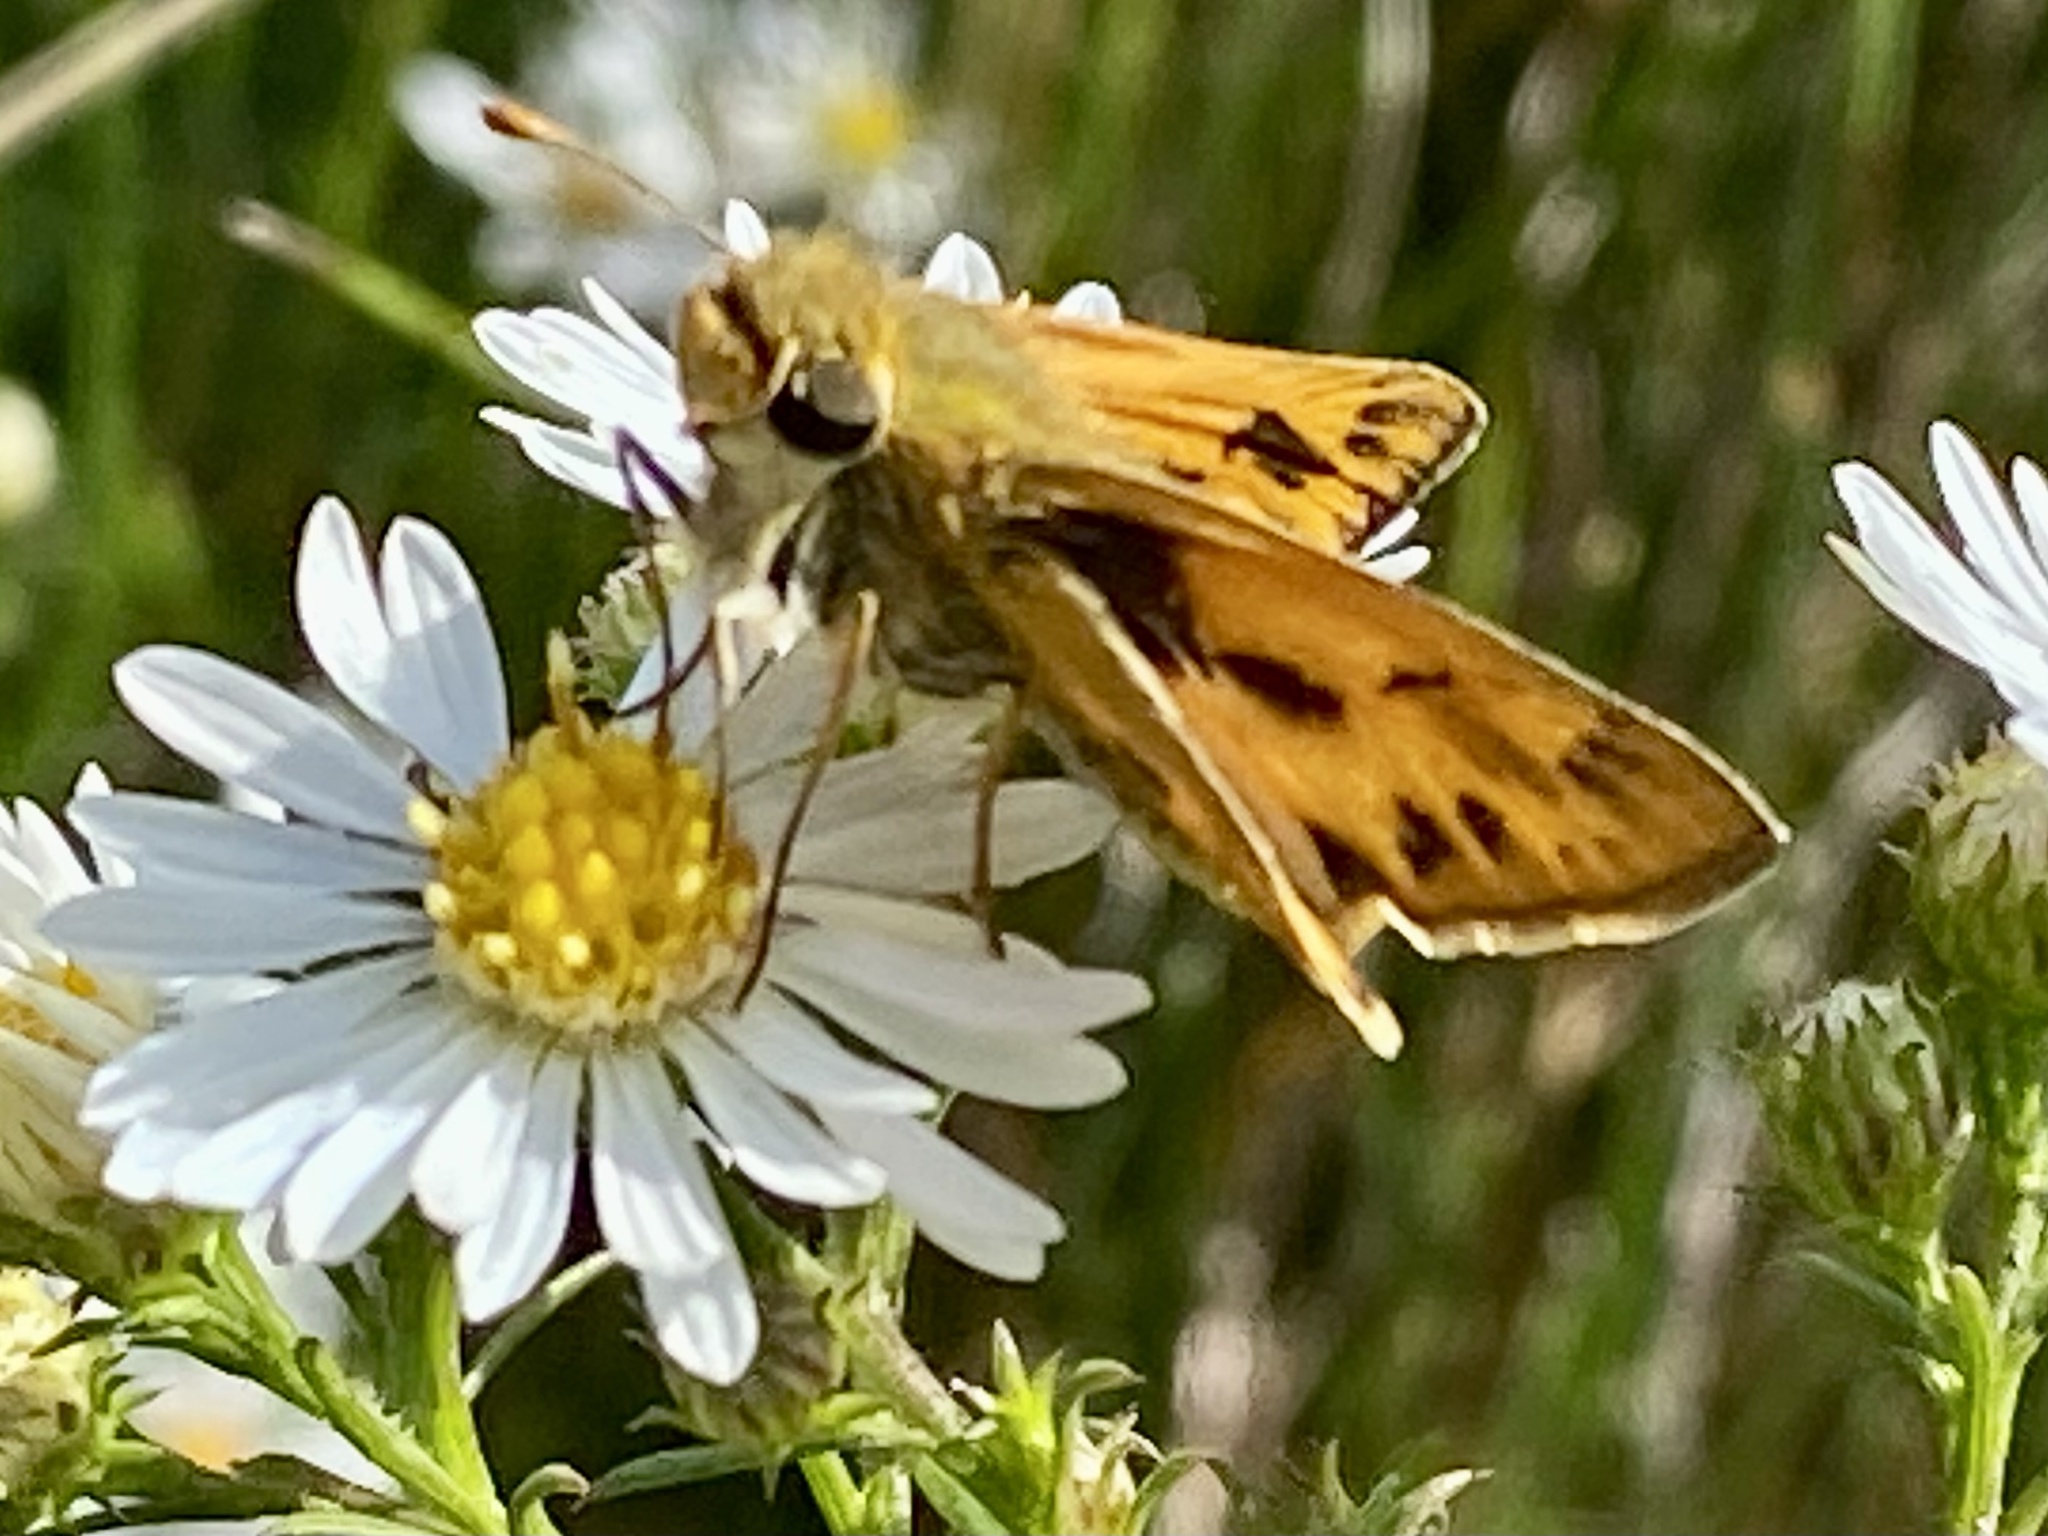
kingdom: Animalia
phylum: Arthropoda
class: Insecta
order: Lepidoptera
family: Hesperiidae
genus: Hylephila
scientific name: Hylephila phyleus
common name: Fiery skipper
